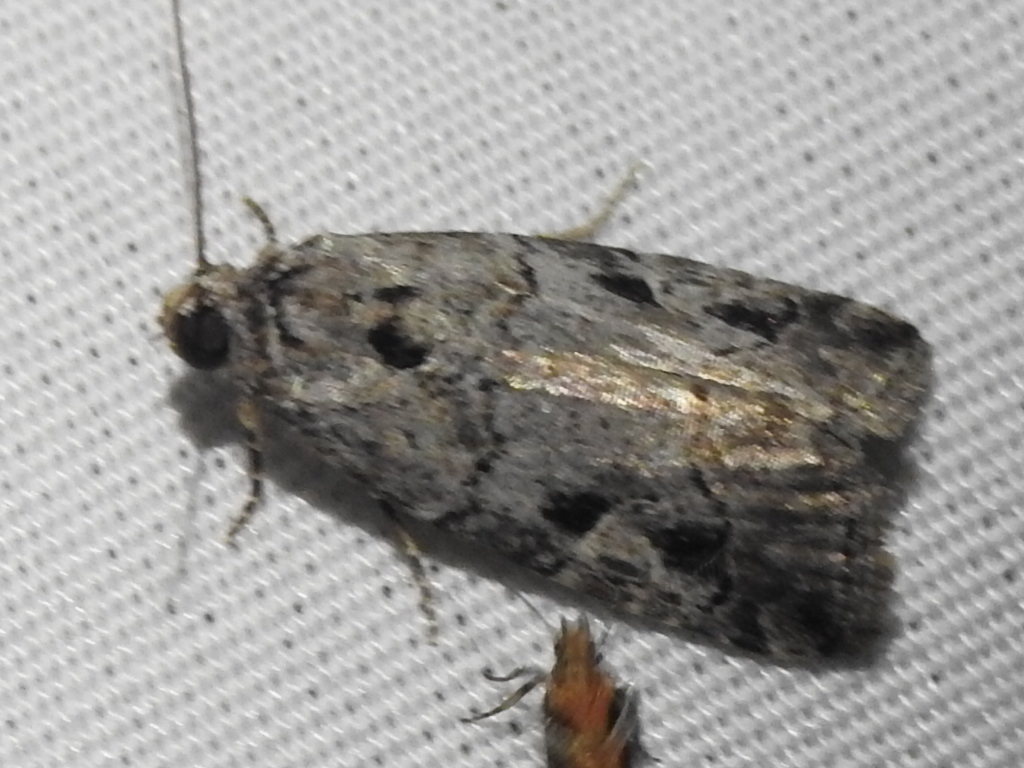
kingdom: Animalia
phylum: Arthropoda
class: Insecta
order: Lepidoptera
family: Noctuidae
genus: Metaponpneumata
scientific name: Metaponpneumata rogenhoferi
